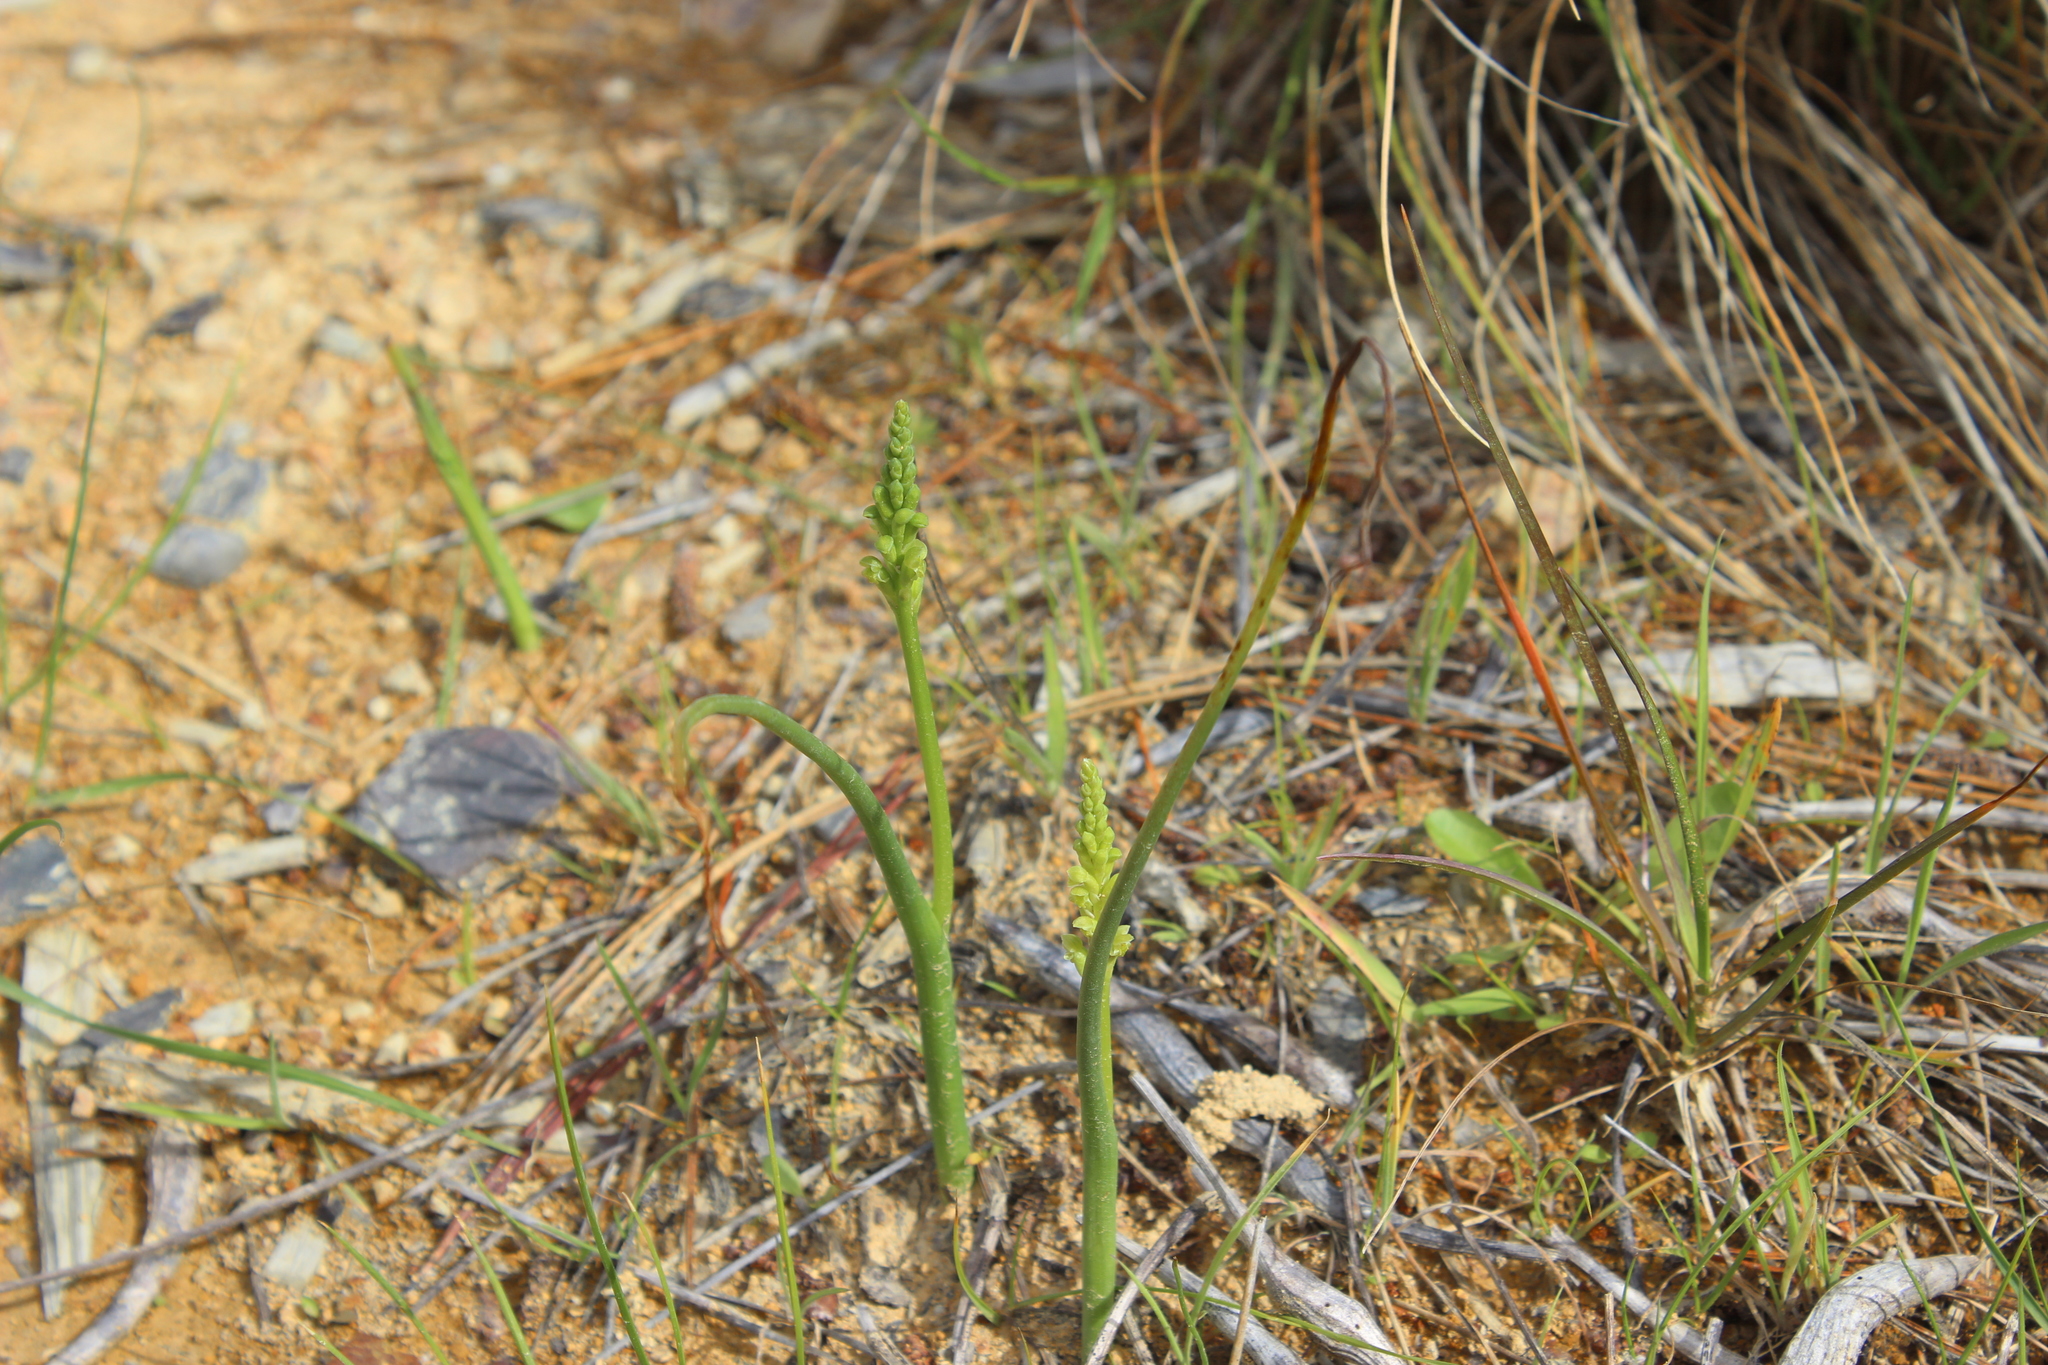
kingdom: Plantae
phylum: Tracheophyta
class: Liliopsida
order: Asparagales
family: Orchidaceae
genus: Microtis
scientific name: Microtis unifolia
